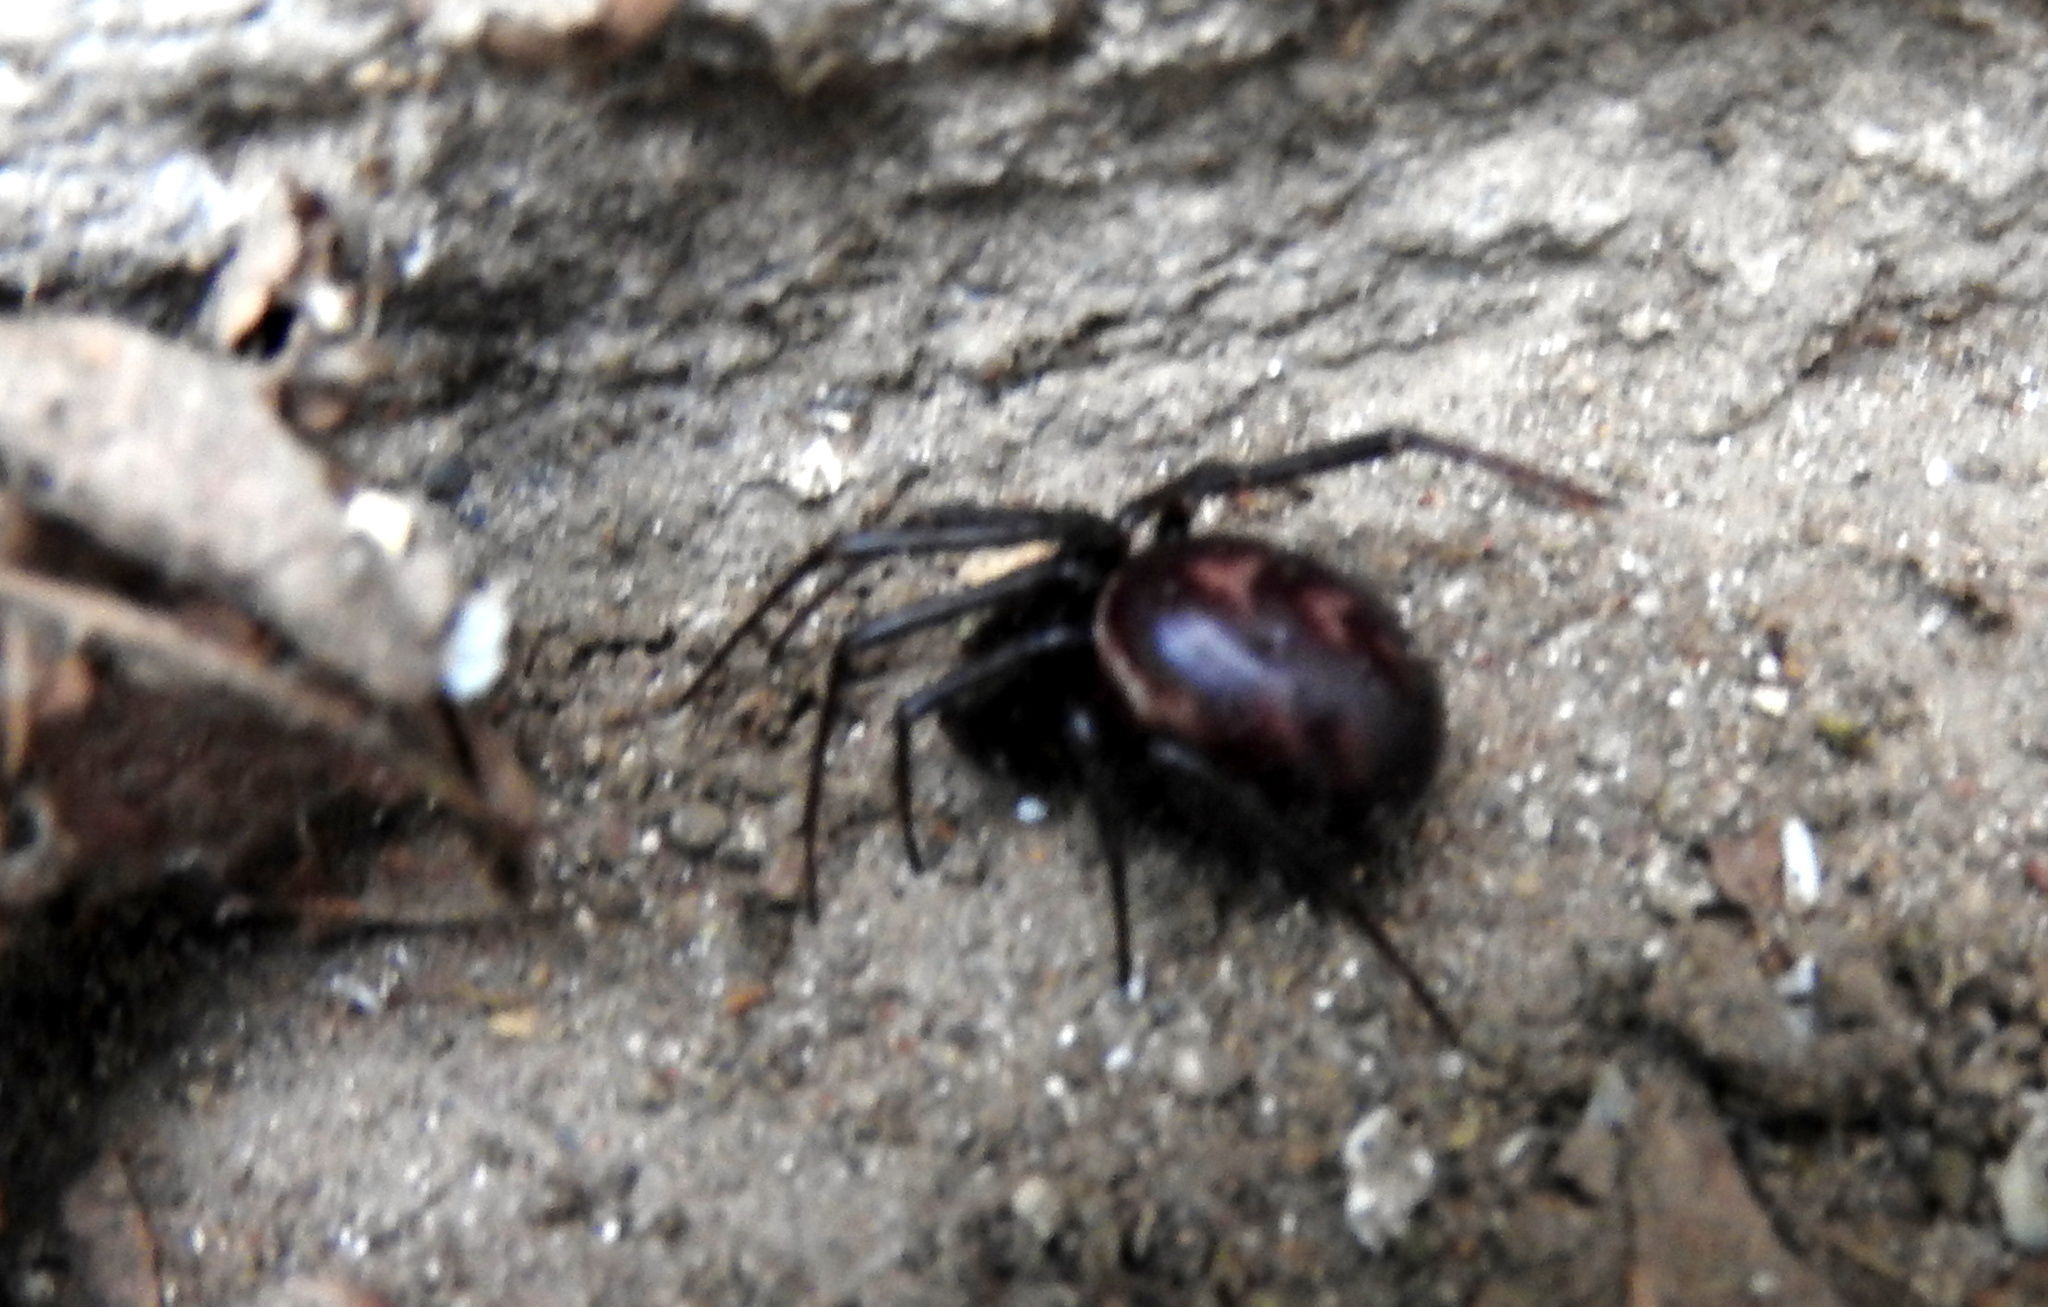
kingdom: Animalia
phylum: Arthropoda
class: Arachnida
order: Araneae
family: Theridiidae
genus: Steatoda
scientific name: Steatoda grossa
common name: False black widow
